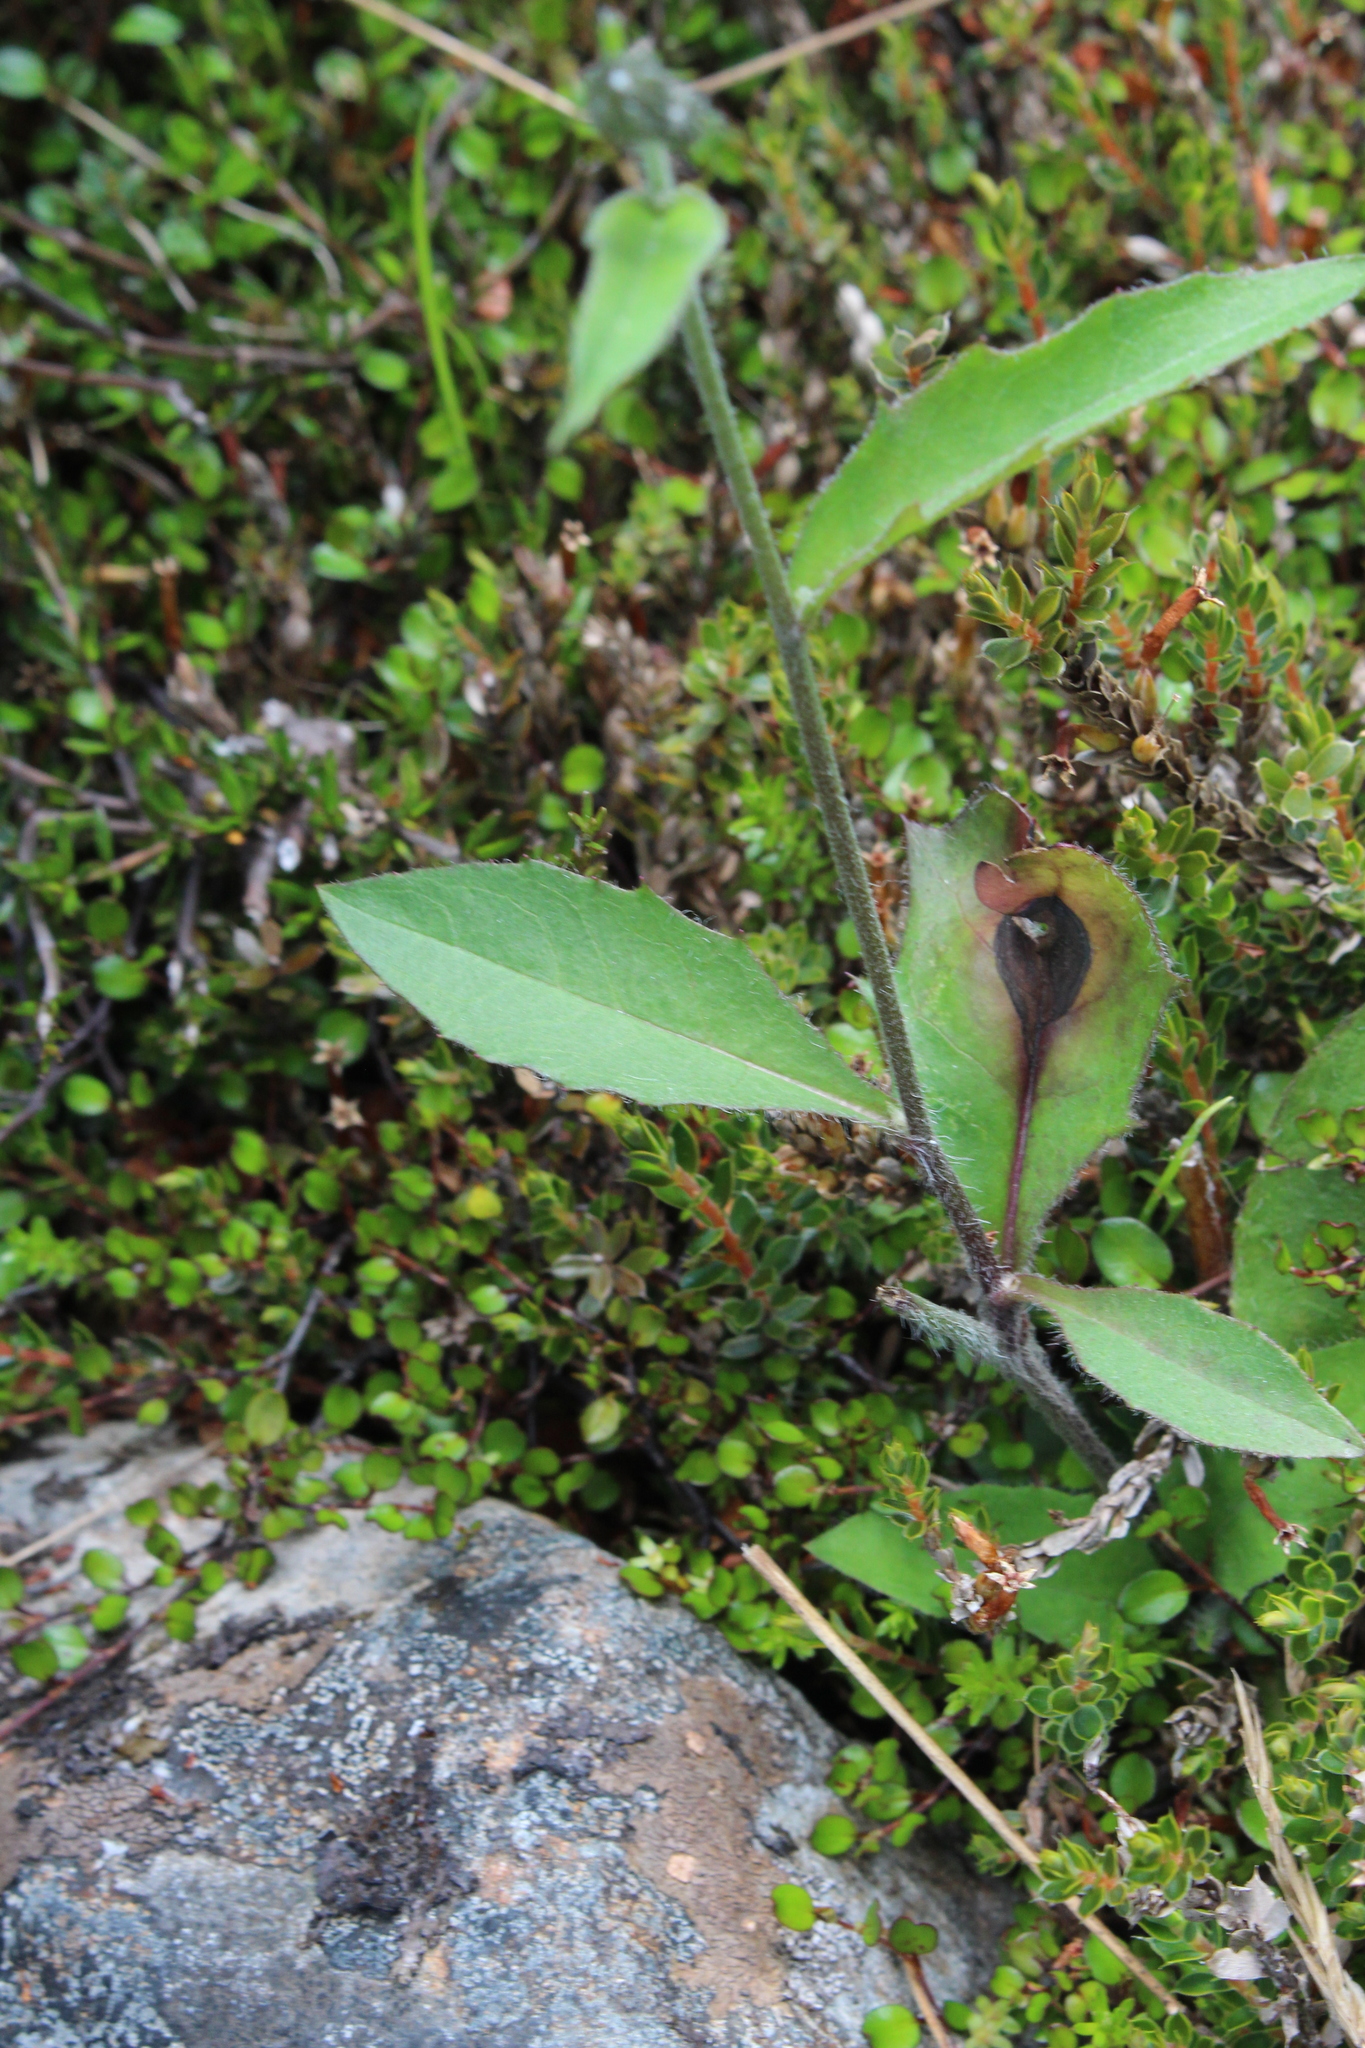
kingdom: Plantae
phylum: Tracheophyta
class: Magnoliopsida
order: Asterales
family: Asteraceae
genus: Hieracium
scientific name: Hieracium lepidulum
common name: Irregular-toothed hawkweed
